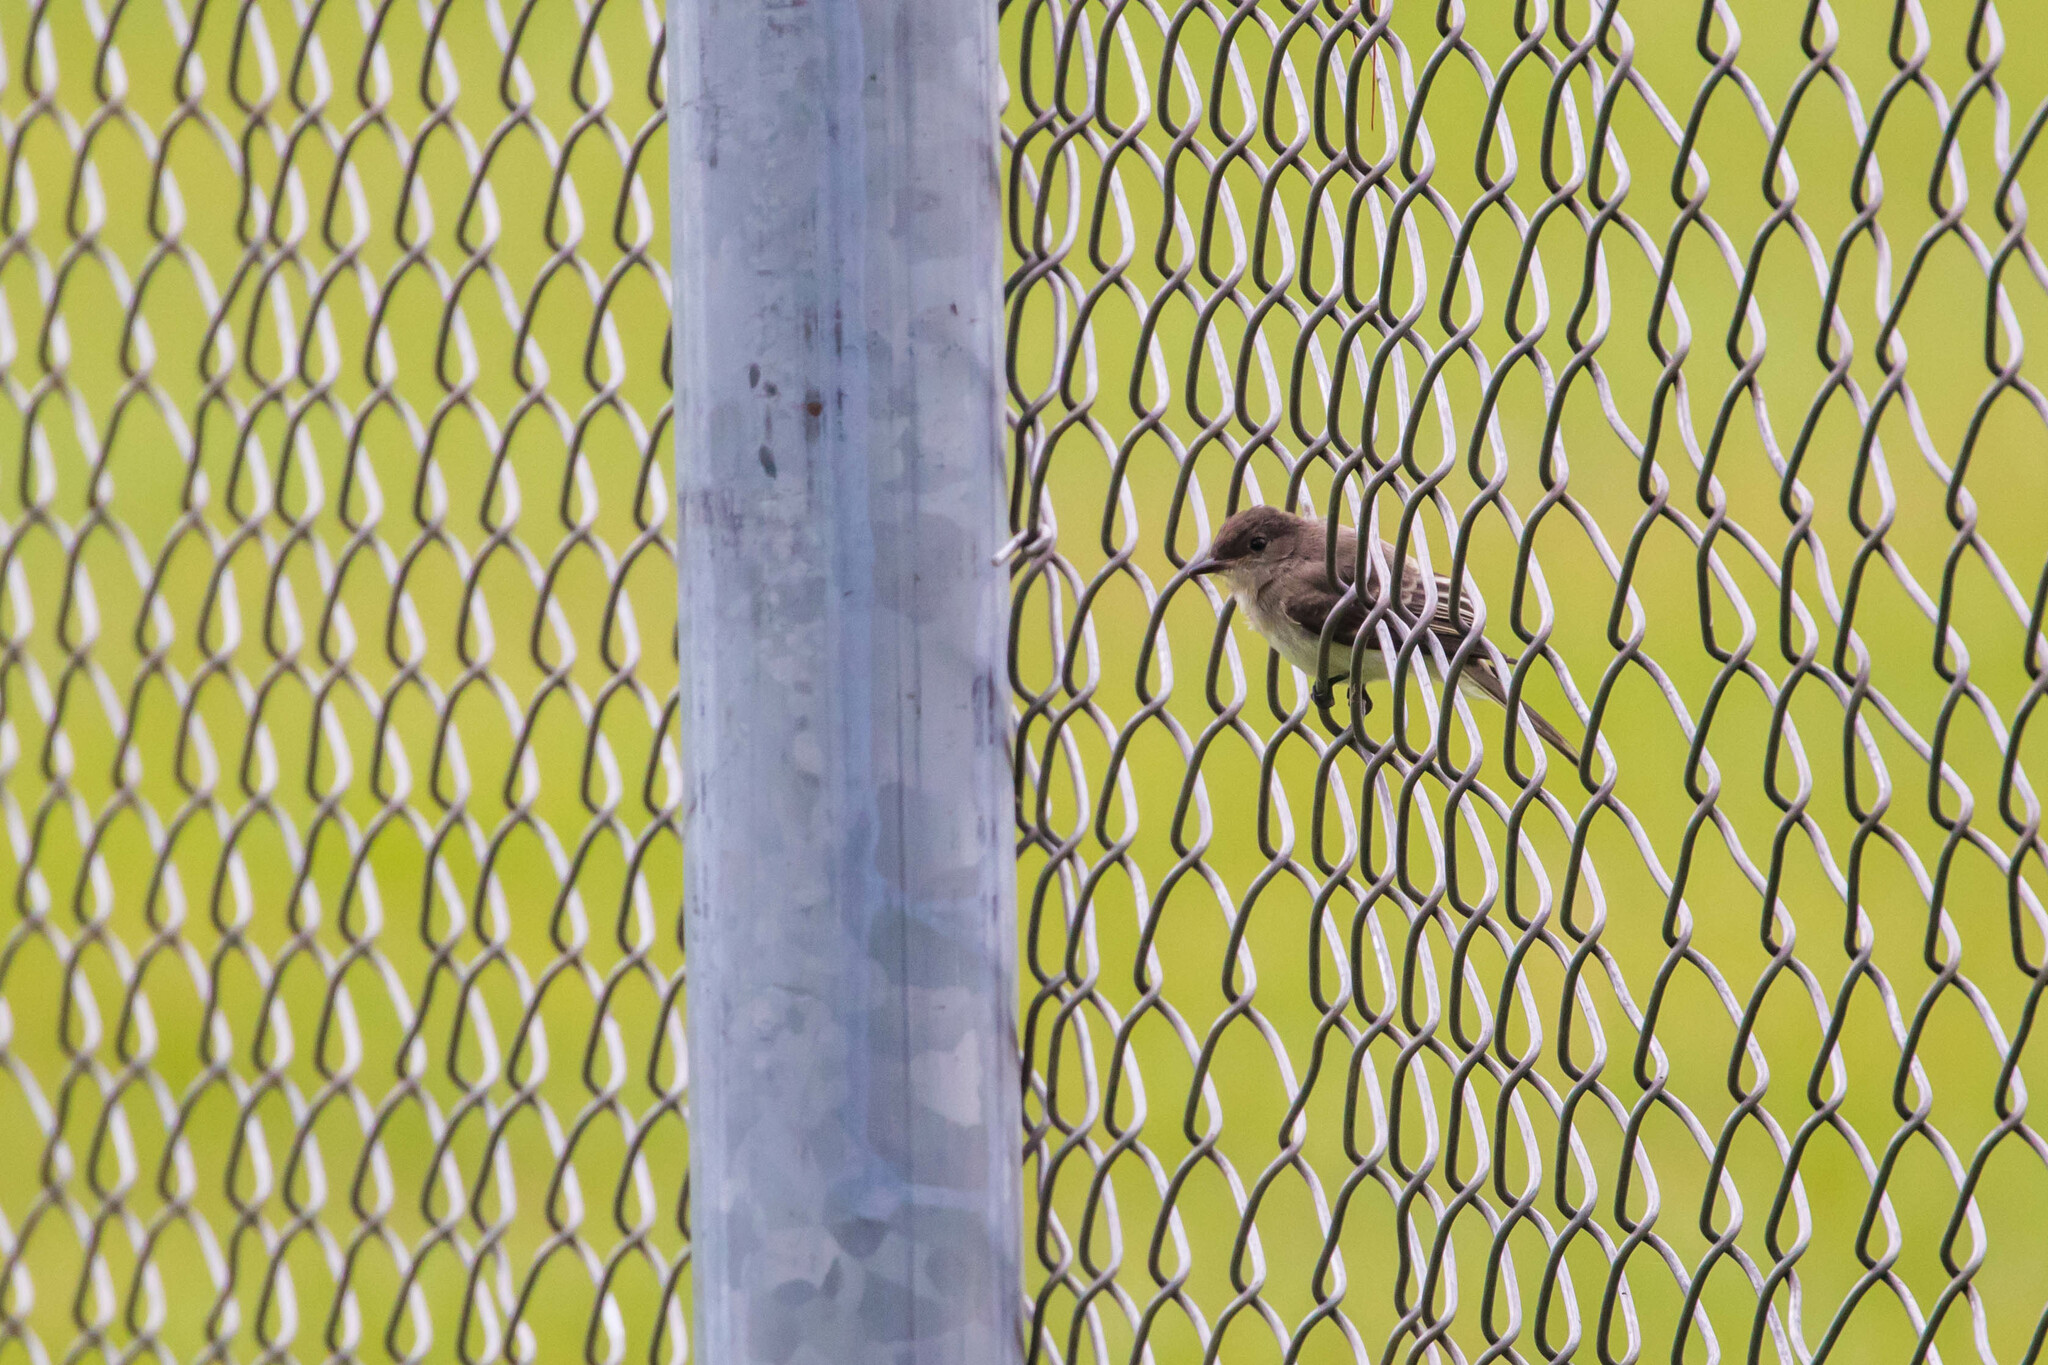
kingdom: Animalia
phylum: Chordata
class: Aves
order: Passeriformes
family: Tyrannidae
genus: Sayornis
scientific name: Sayornis phoebe
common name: Eastern phoebe
